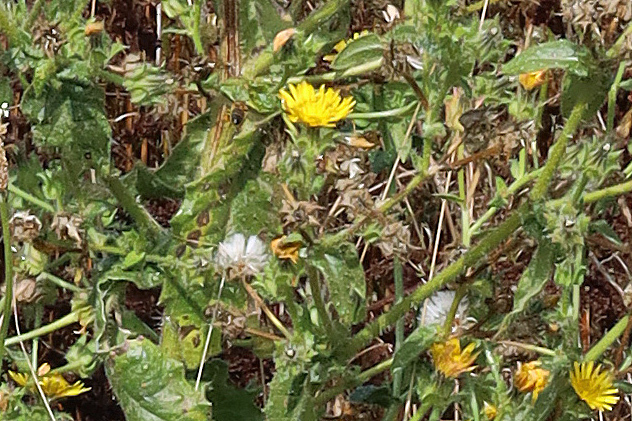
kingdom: Plantae
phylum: Tracheophyta
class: Magnoliopsida
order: Asterales
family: Asteraceae
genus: Helminthotheca
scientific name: Helminthotheca echioides
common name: Ox-tongue
